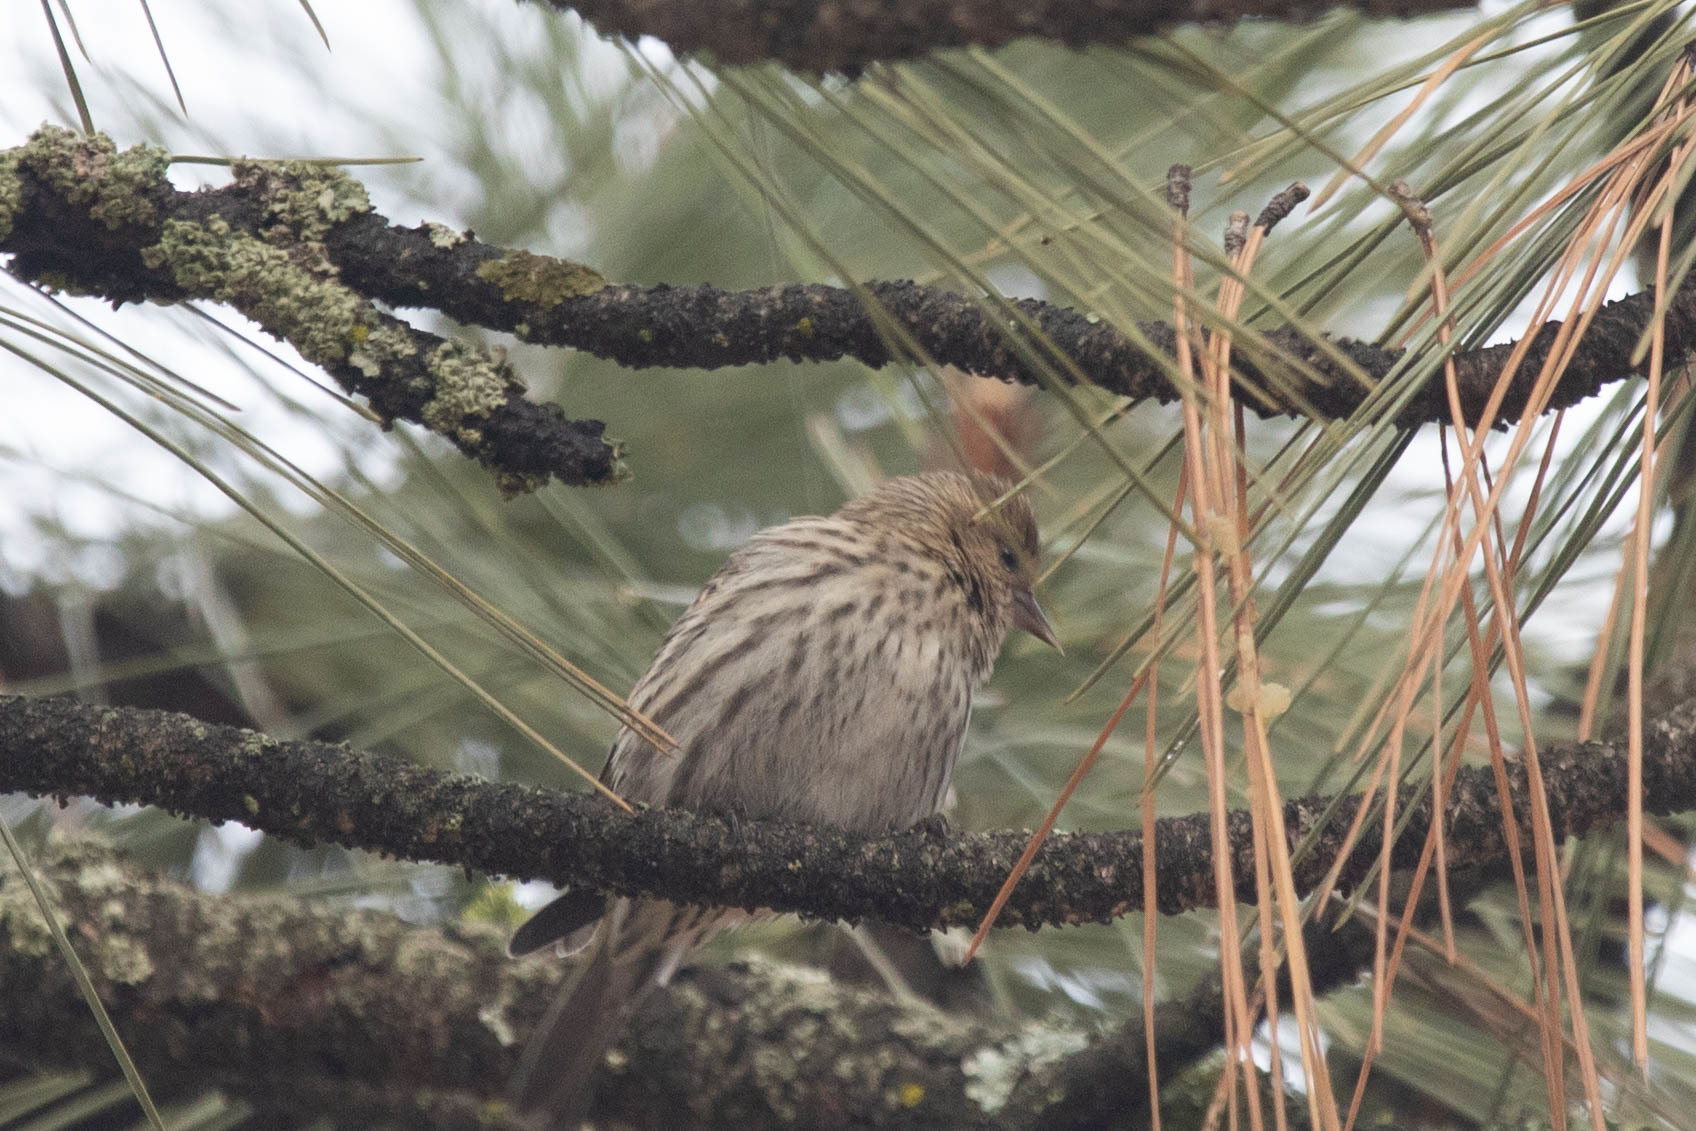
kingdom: Animalia
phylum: Chordata
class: Aves
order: Passeriformes
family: Fringillidae
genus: Spinus
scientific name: Spinus pinus
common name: Pine siskin
